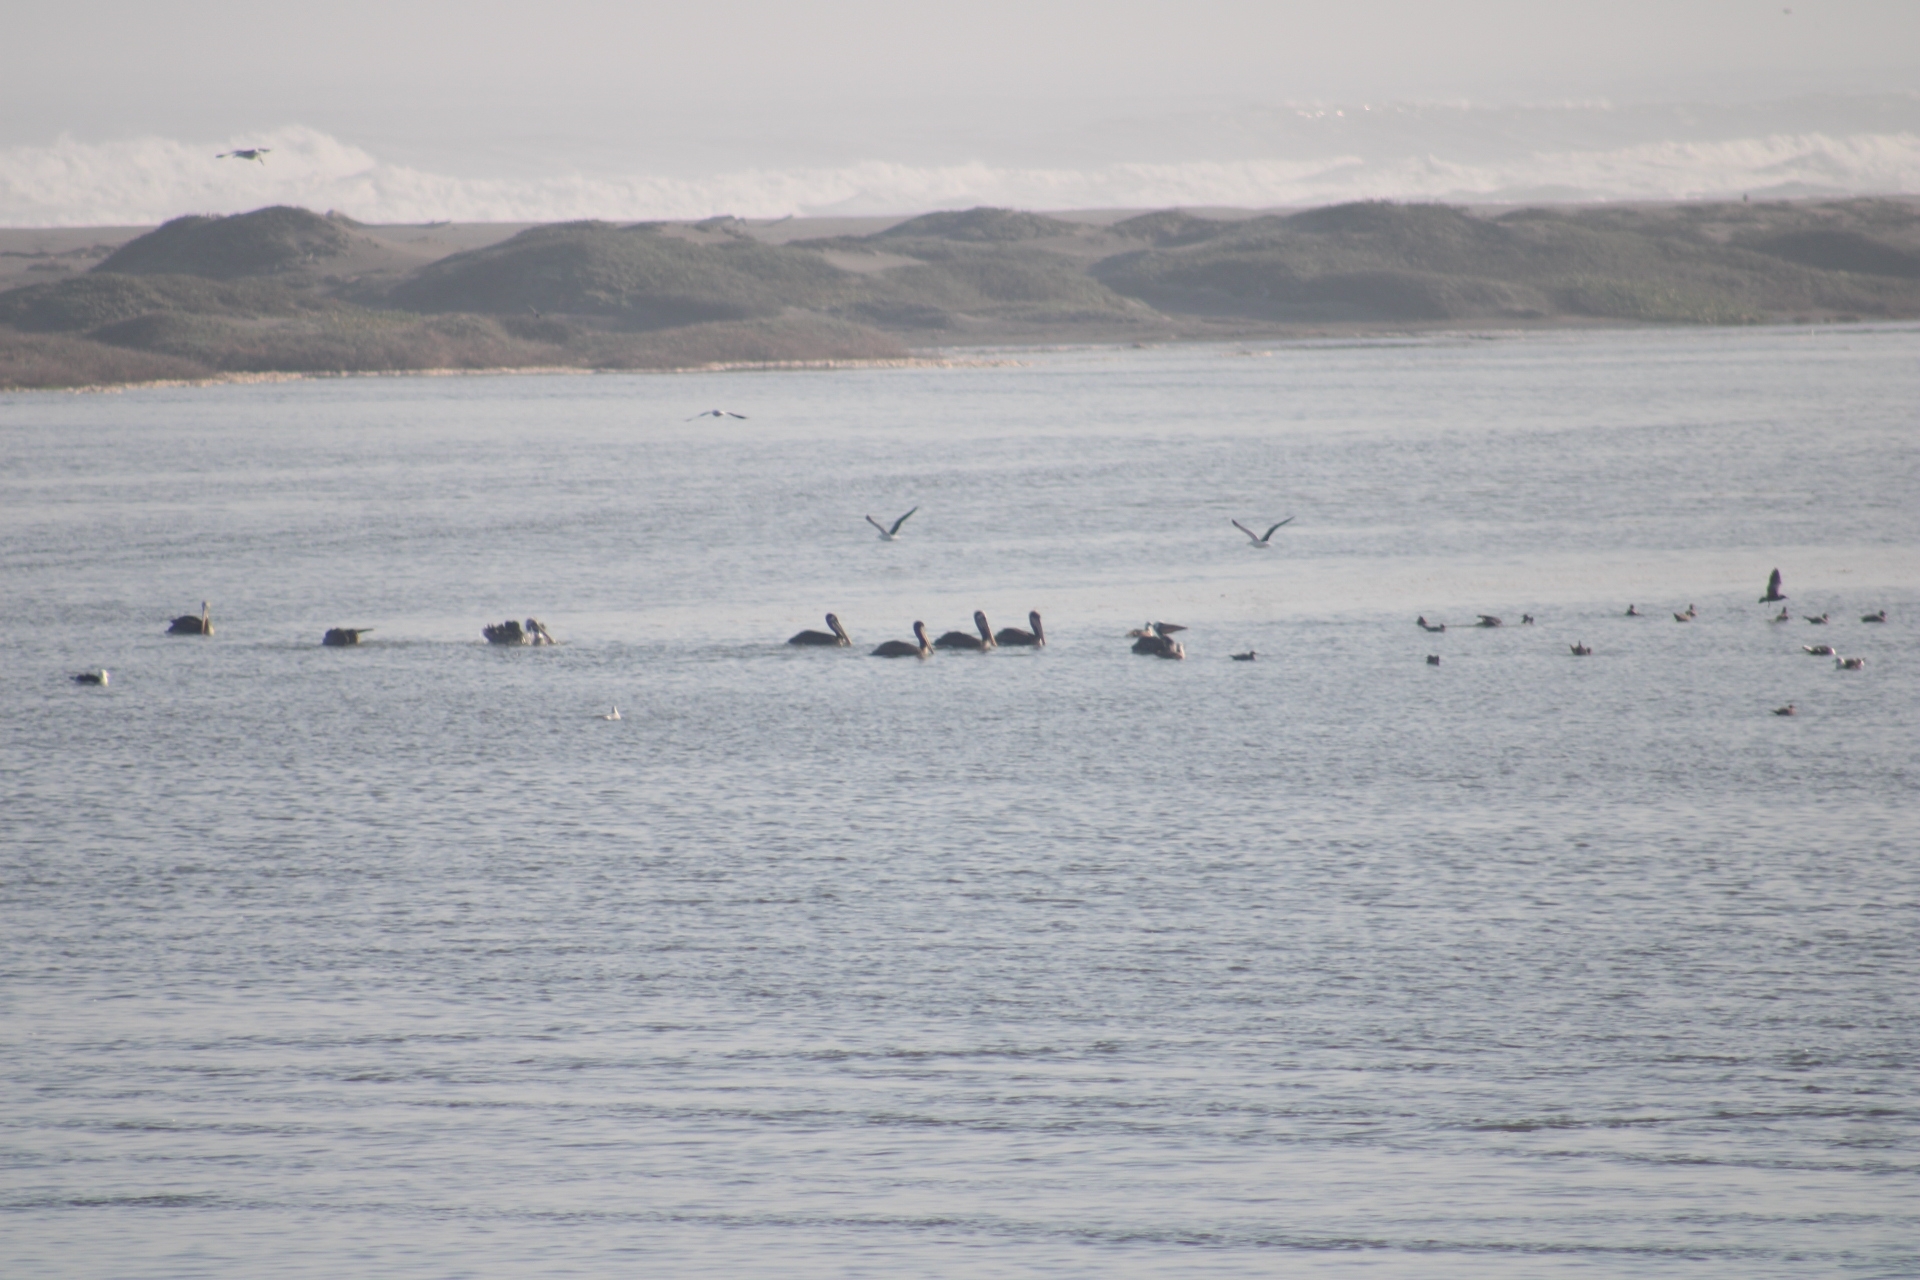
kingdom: Animalia
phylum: Chordata
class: Aves
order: Pelecaniformes
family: Pelecanidae
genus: Pelecanus
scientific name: Pelecanus thagus
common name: Peruvian pelican
